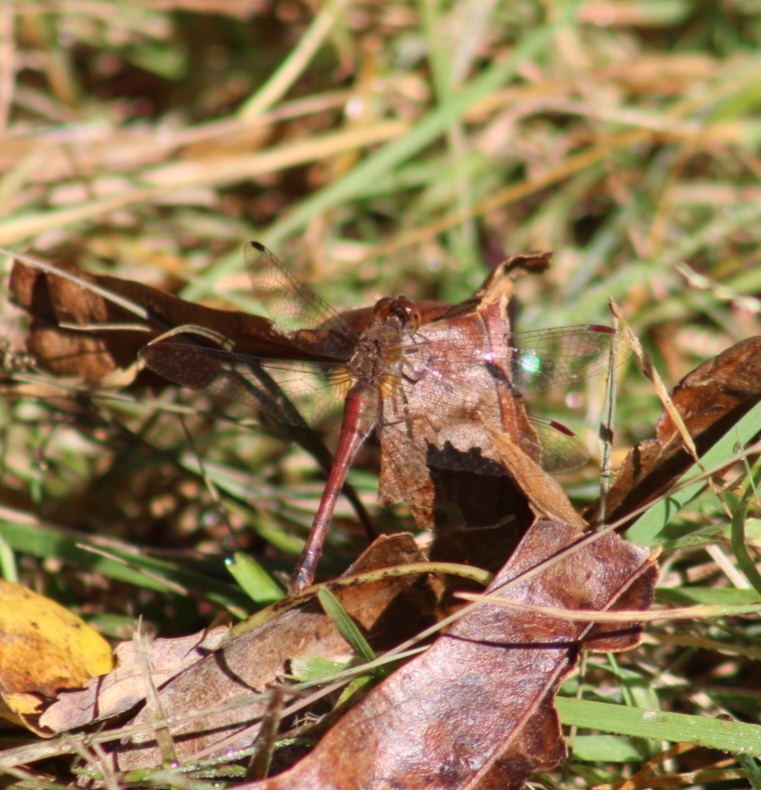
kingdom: Animalia
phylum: Arthropoda
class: Insecta
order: Odonata
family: Libellulidae
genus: Sympetrum
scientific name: Sympetrum vicinum
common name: Autumn meadowhawk
